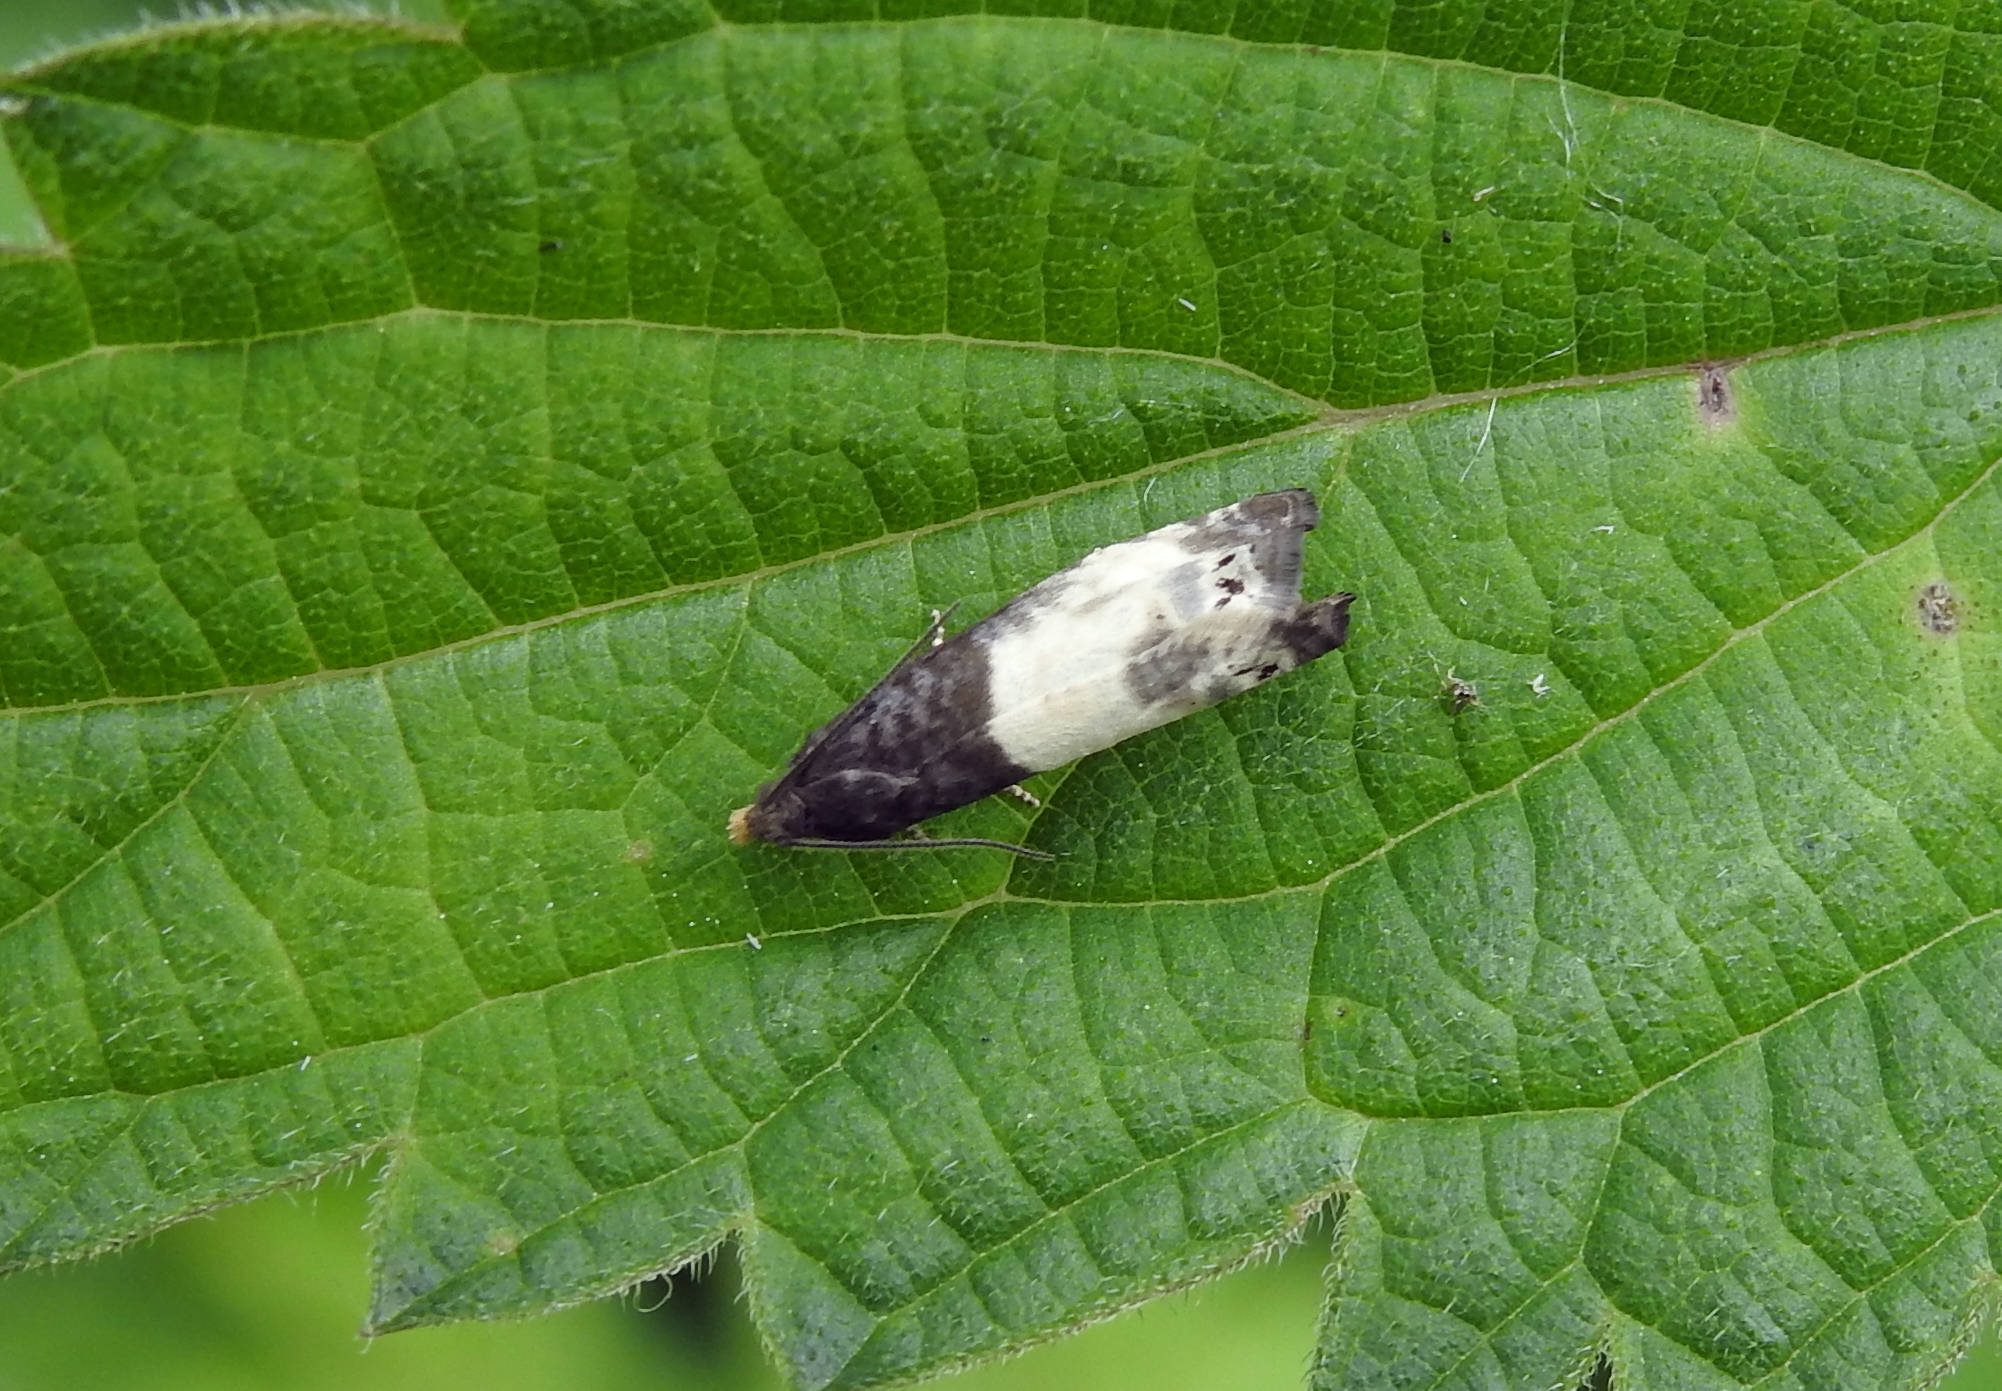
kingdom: Animalia
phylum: Arthropoda
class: Insecta
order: Lepidoptera
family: Tortricidae
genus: Notocelia
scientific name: Notocelia cynosbatella
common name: Yellow-faced bell moth
